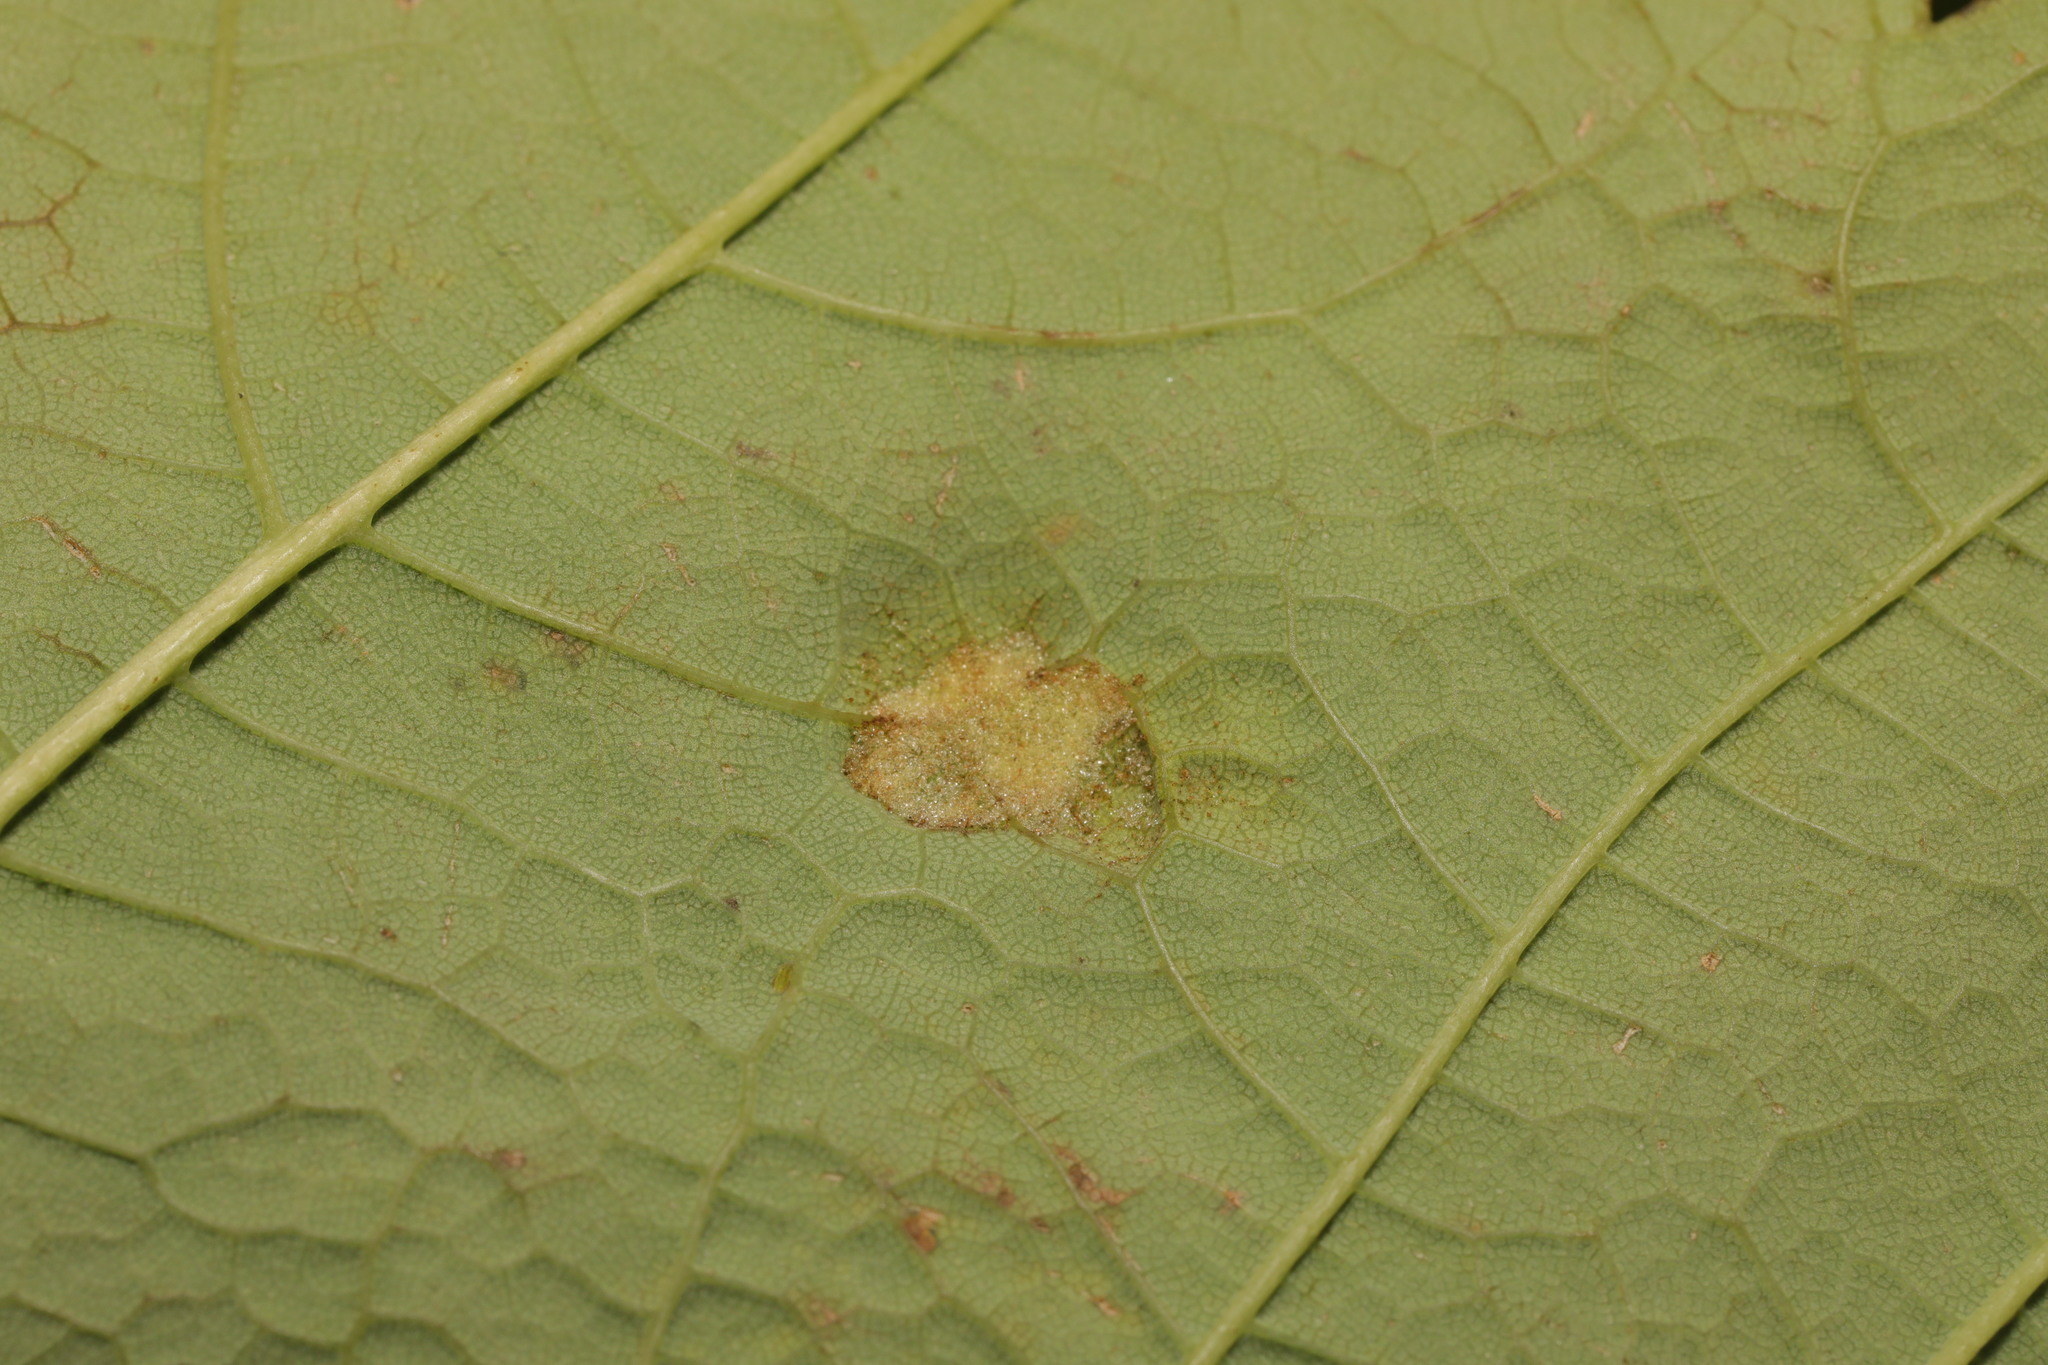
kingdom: Animalia
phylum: Arthropoda
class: Arachnida
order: Trombidiformes
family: Eriophyidae
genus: Aceria
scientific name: Aceria pseudoplatani
